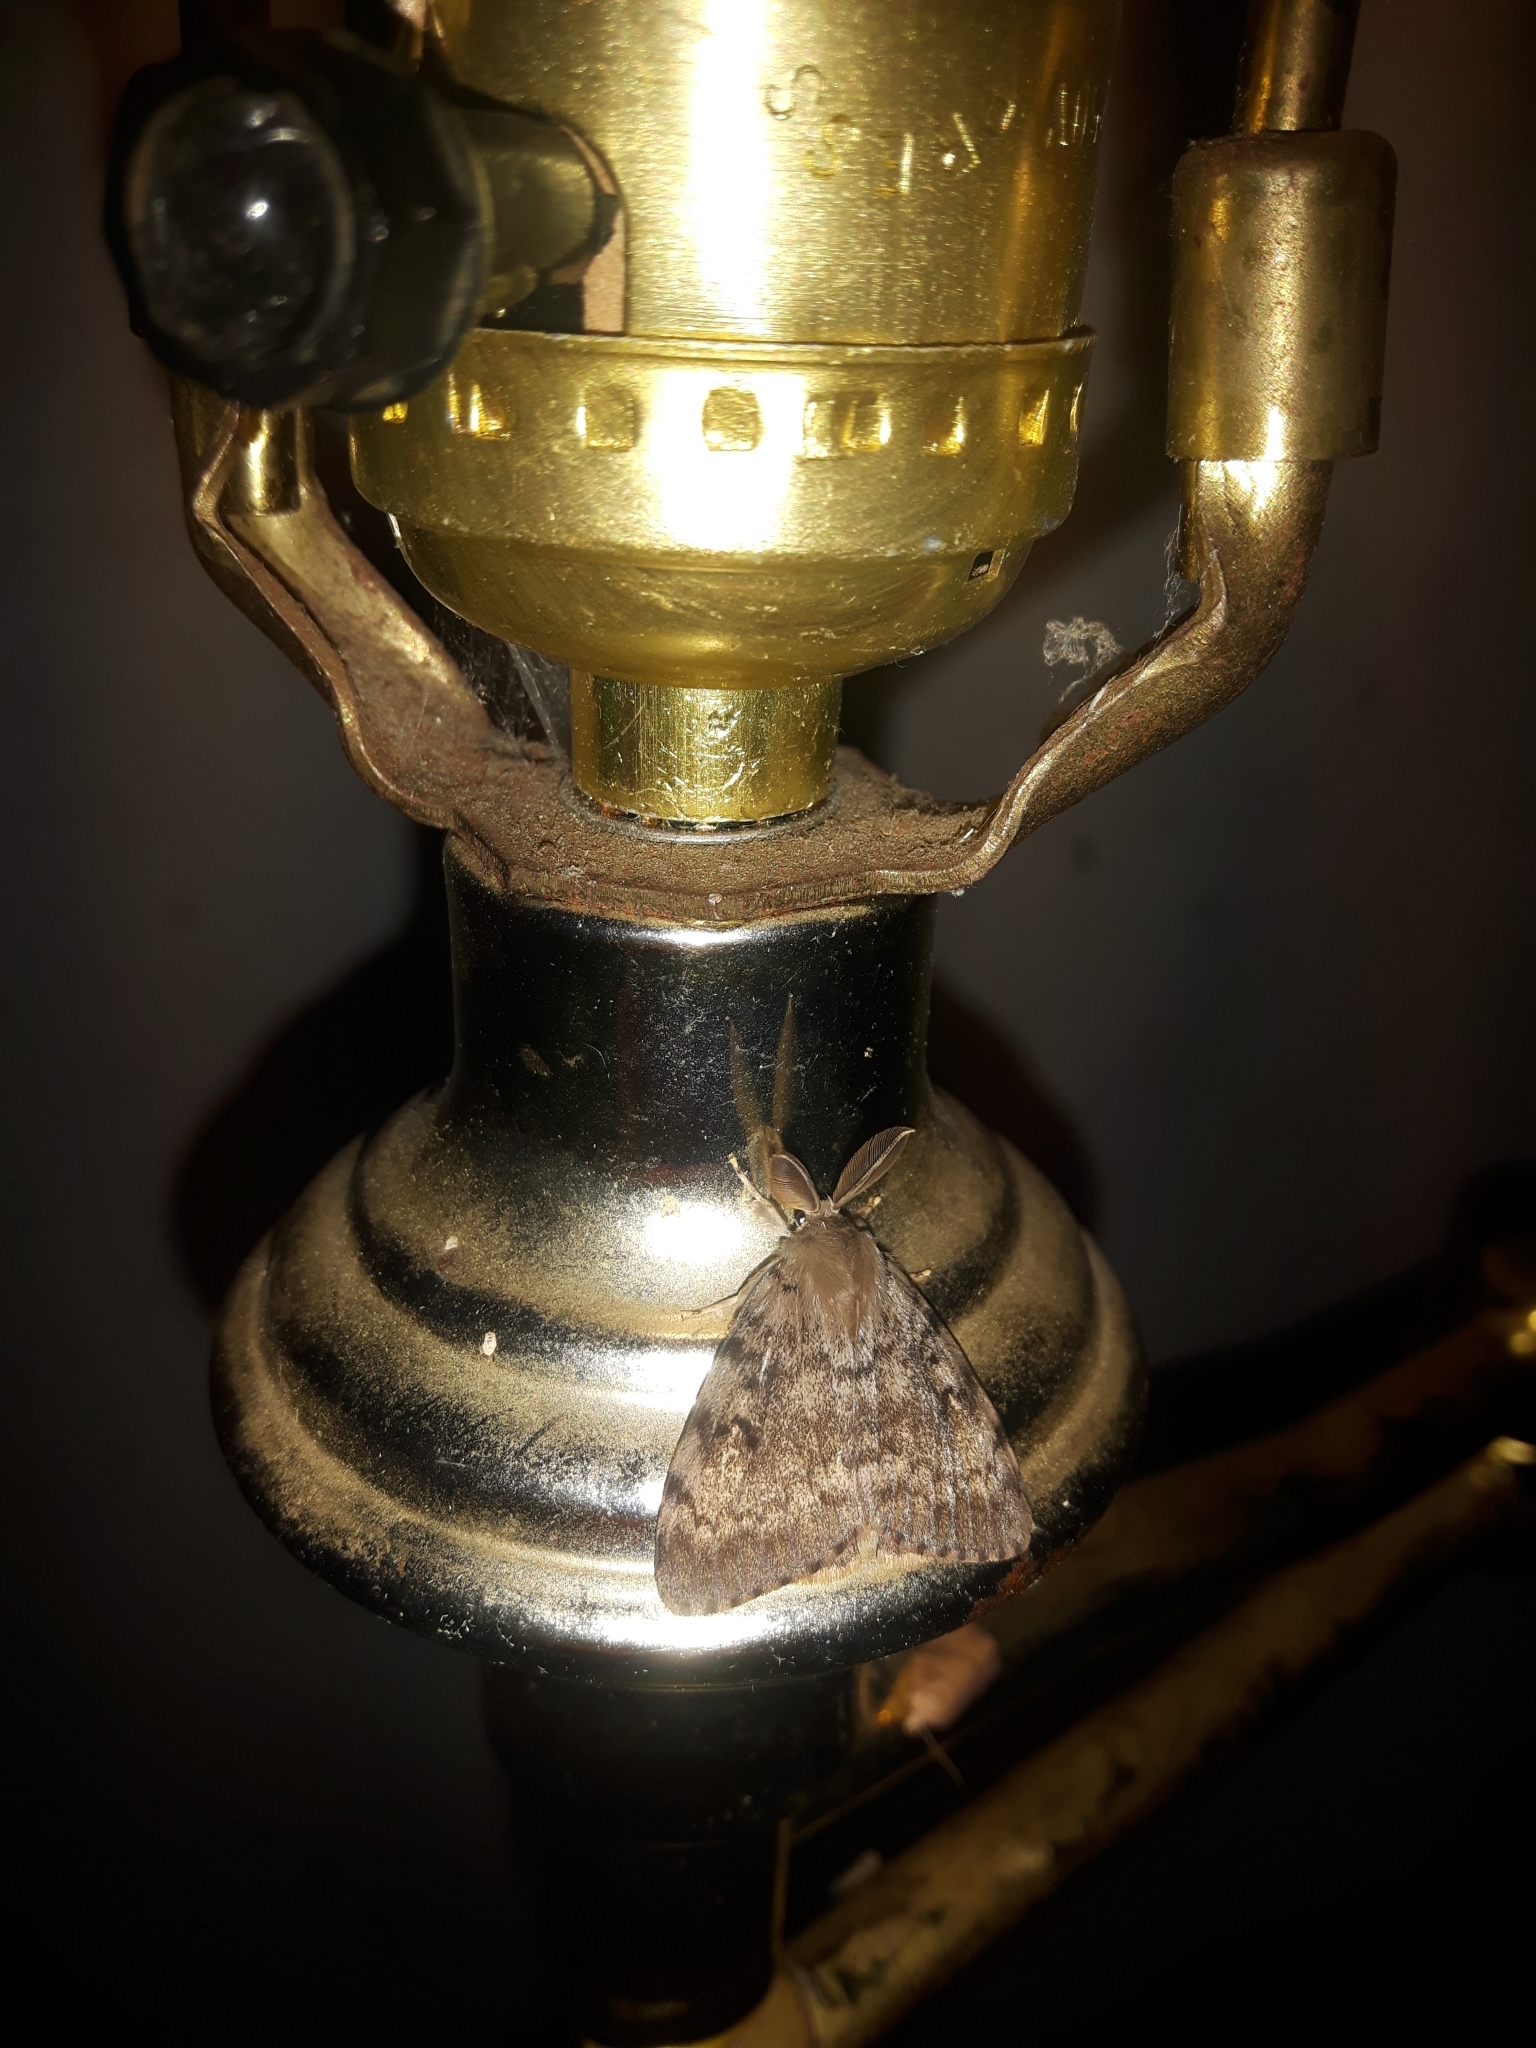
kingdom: Animalia
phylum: Arthropoda
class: Insecta
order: Lepidoptera
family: Erebidae
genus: Lymantria
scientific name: Lymantria dispar
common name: Gypsy moth
